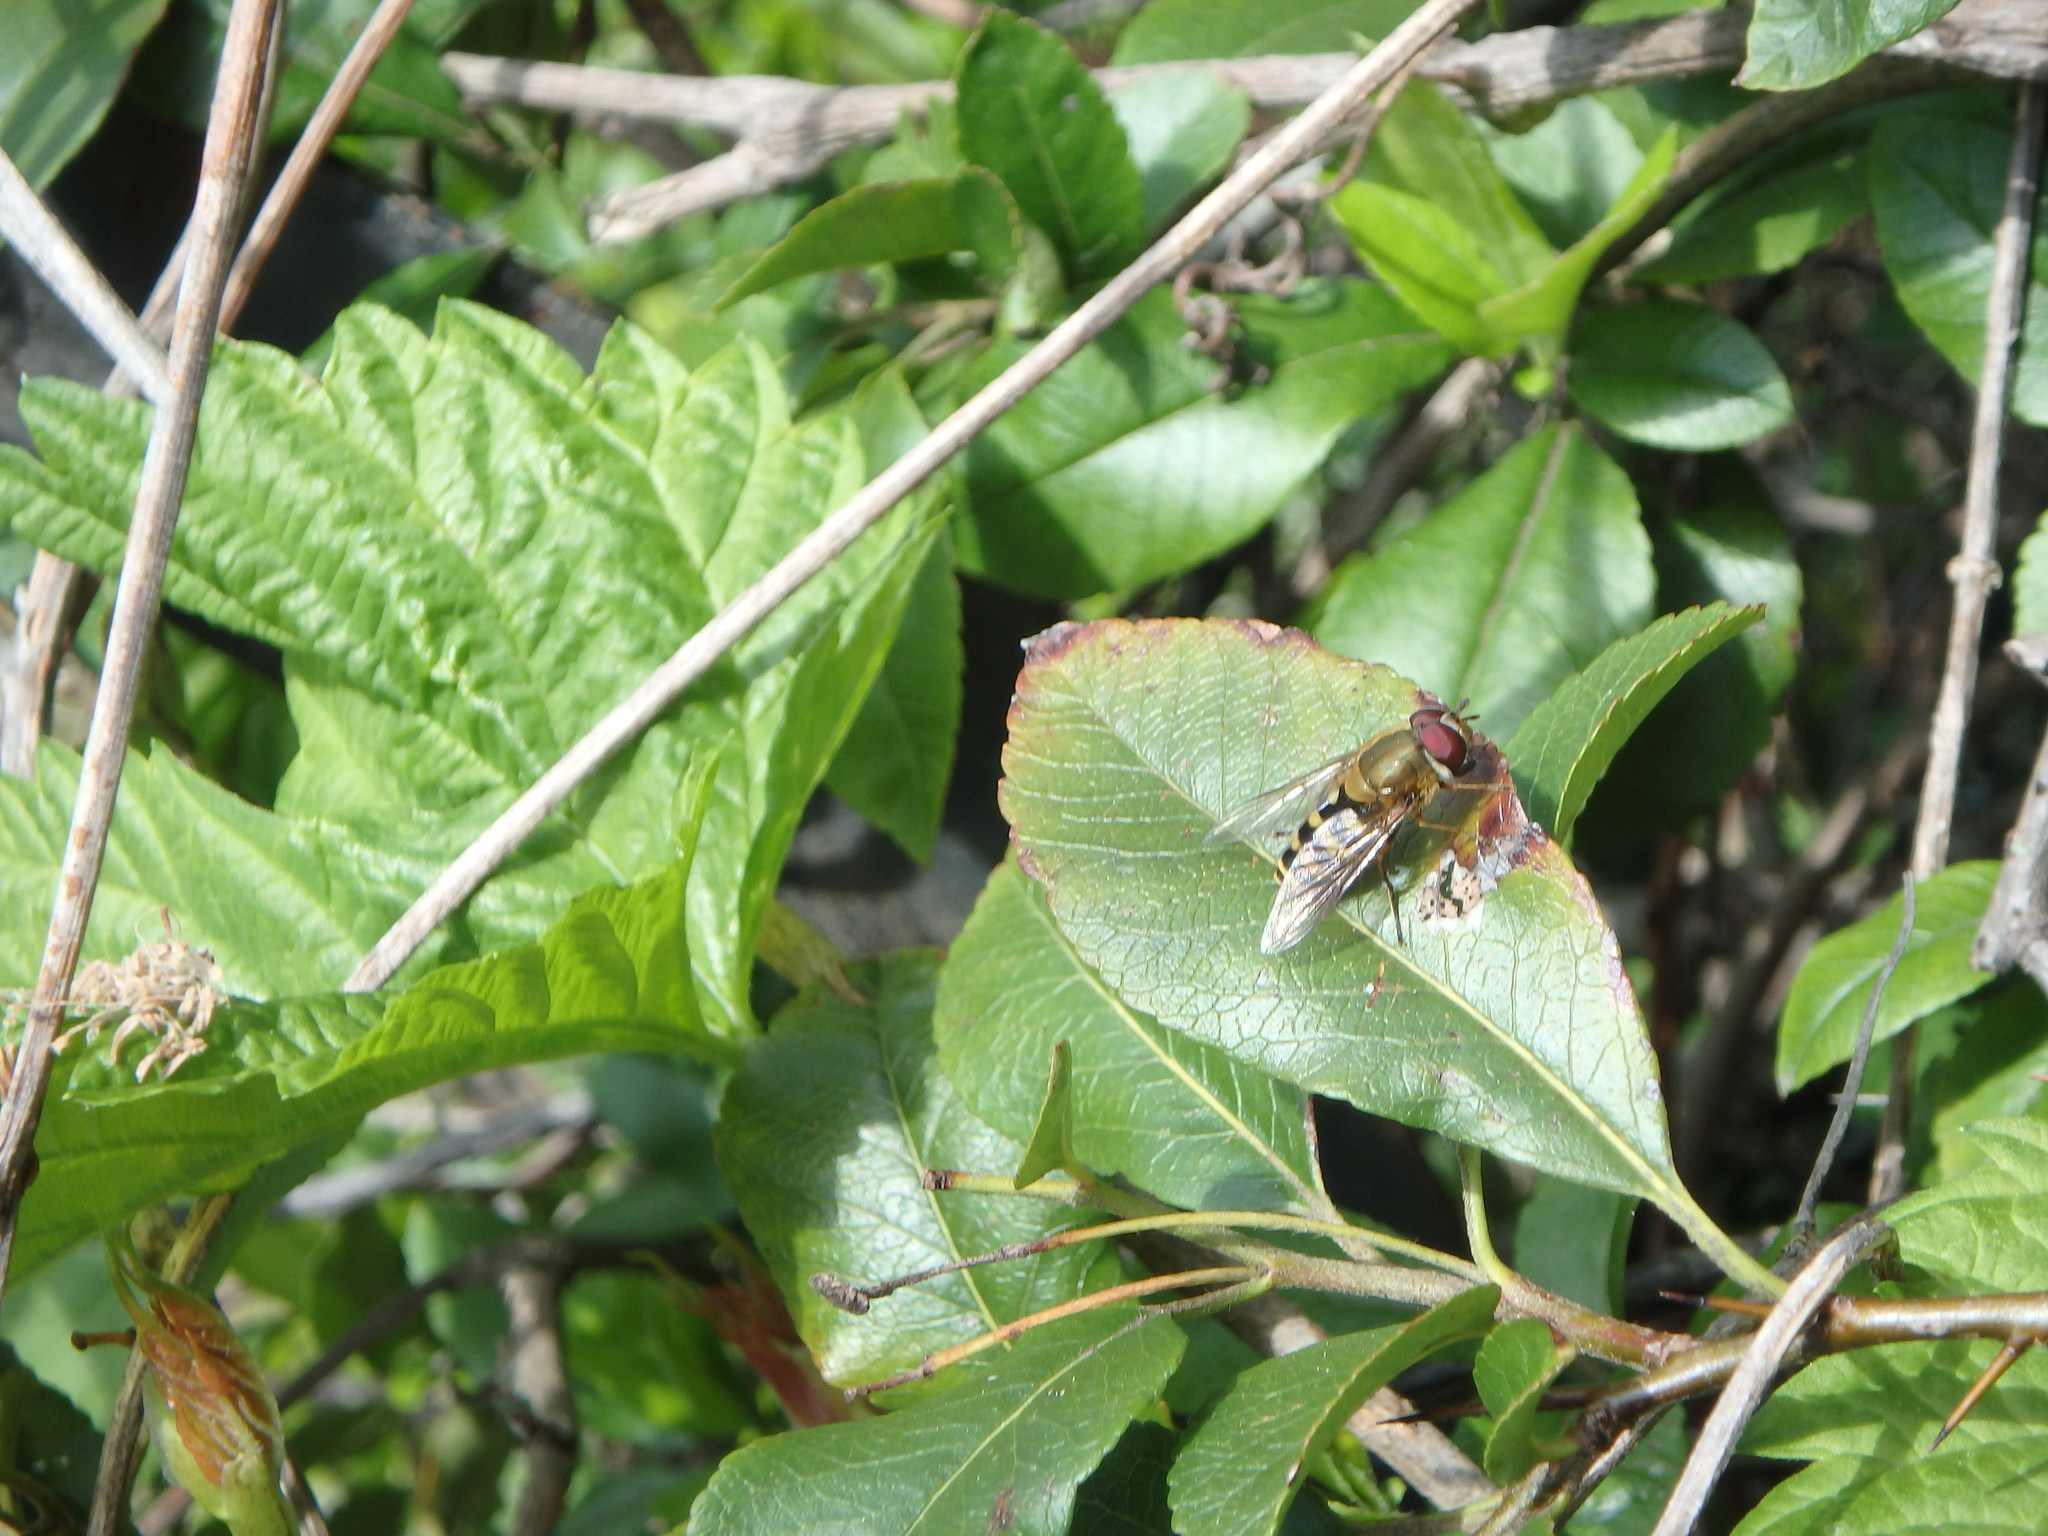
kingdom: Animalia
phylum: Arthropoda
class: Insecta
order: Diptera
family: Syrphidae
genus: Syrphus
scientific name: Syrphus
